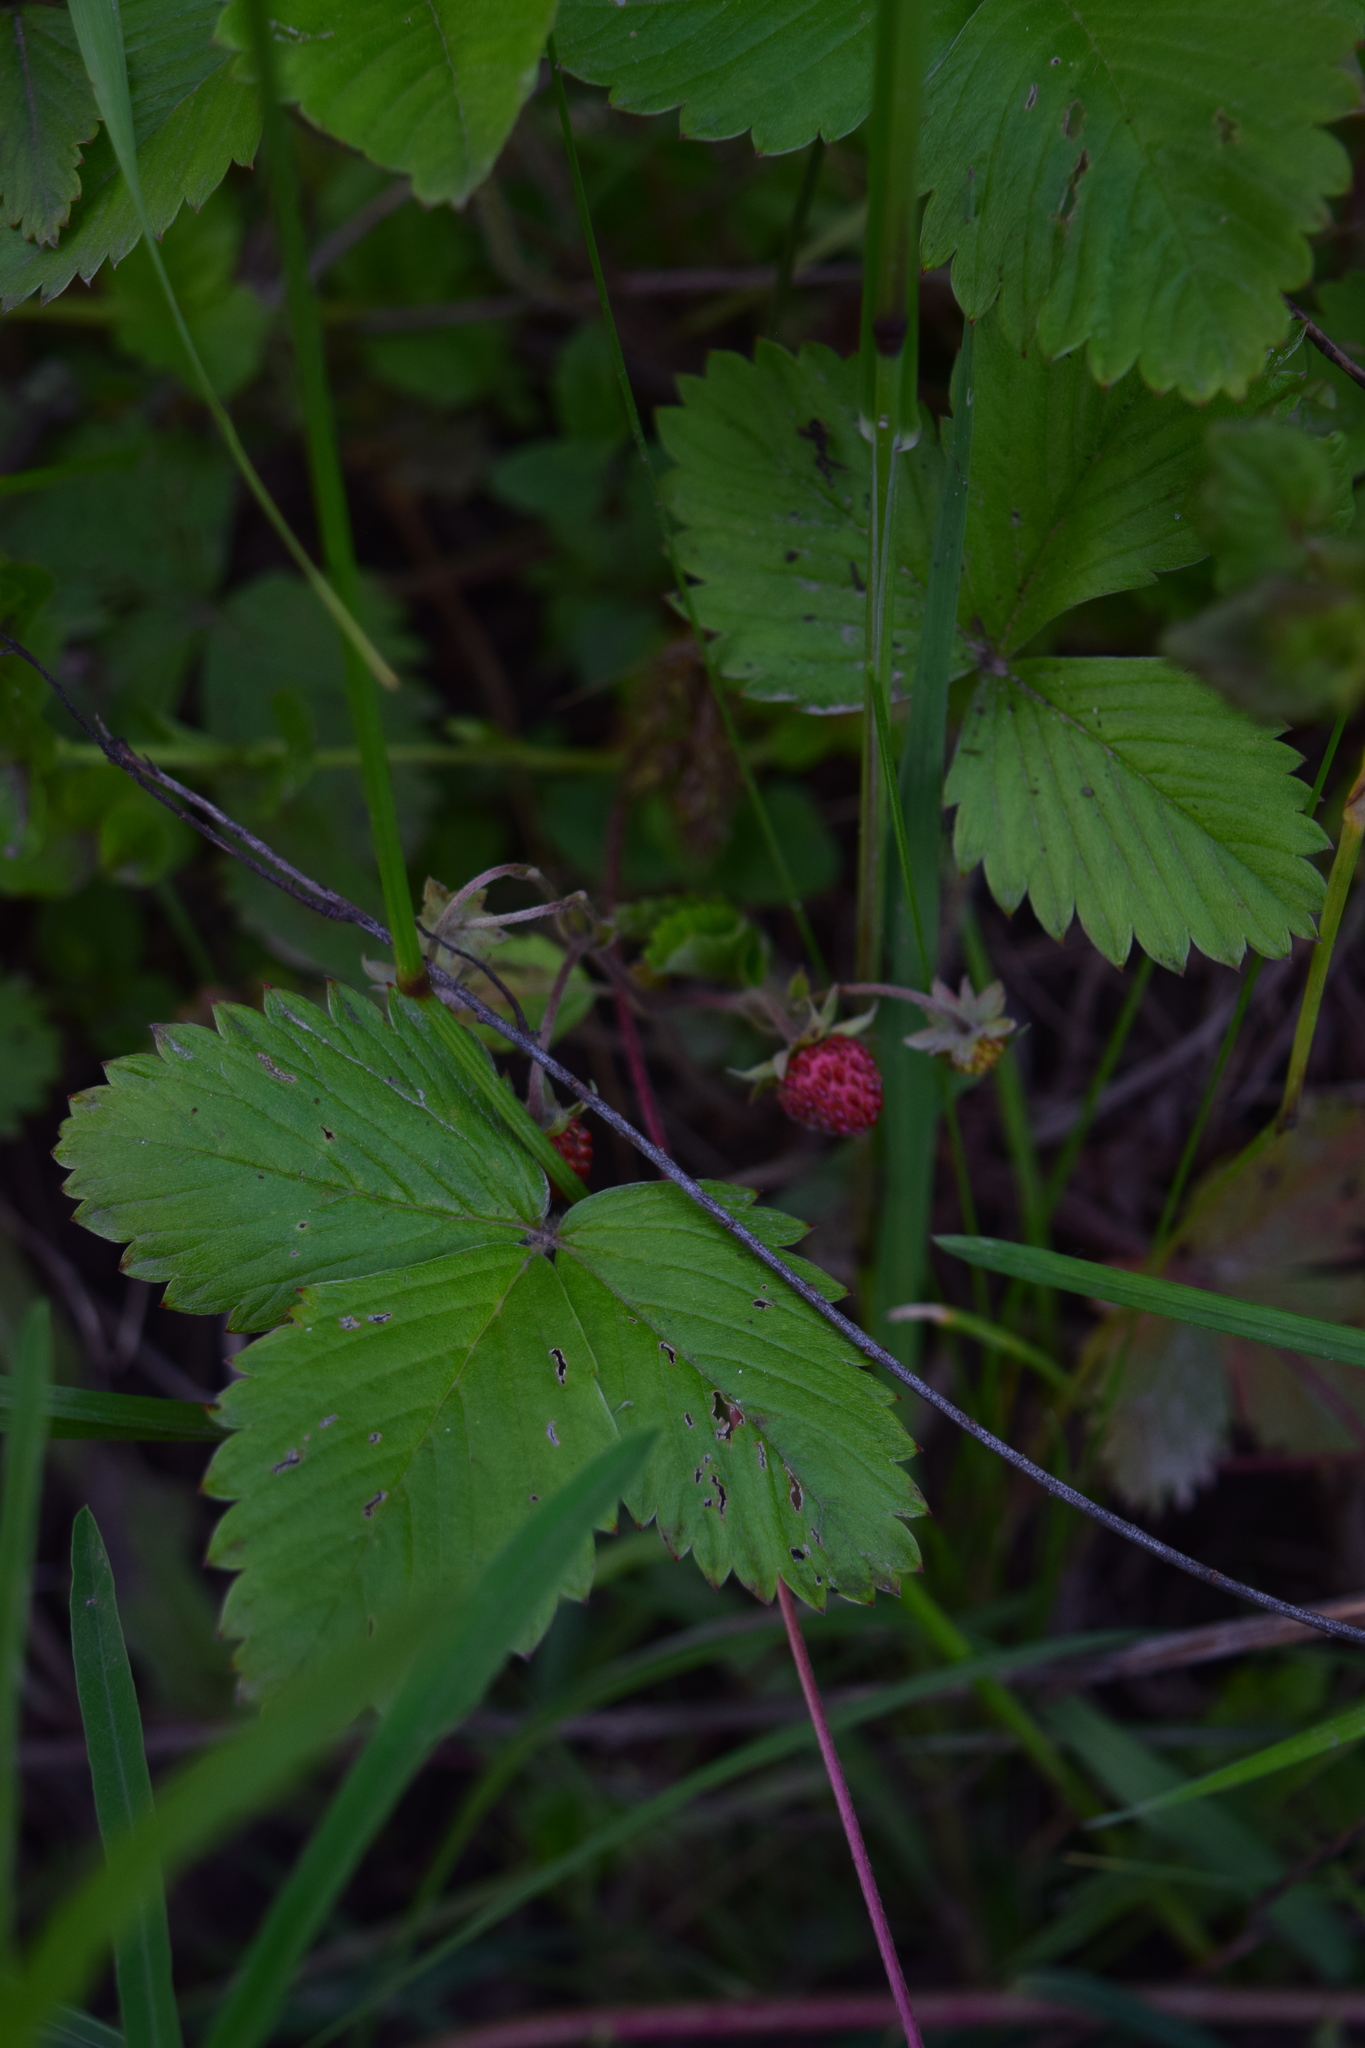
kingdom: Plantae
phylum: Tracheophyta
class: Magnoliopsida
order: Rosales
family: Rosaceae
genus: Fragaria
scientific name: Fragaria vesca
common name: Wild strawberry
